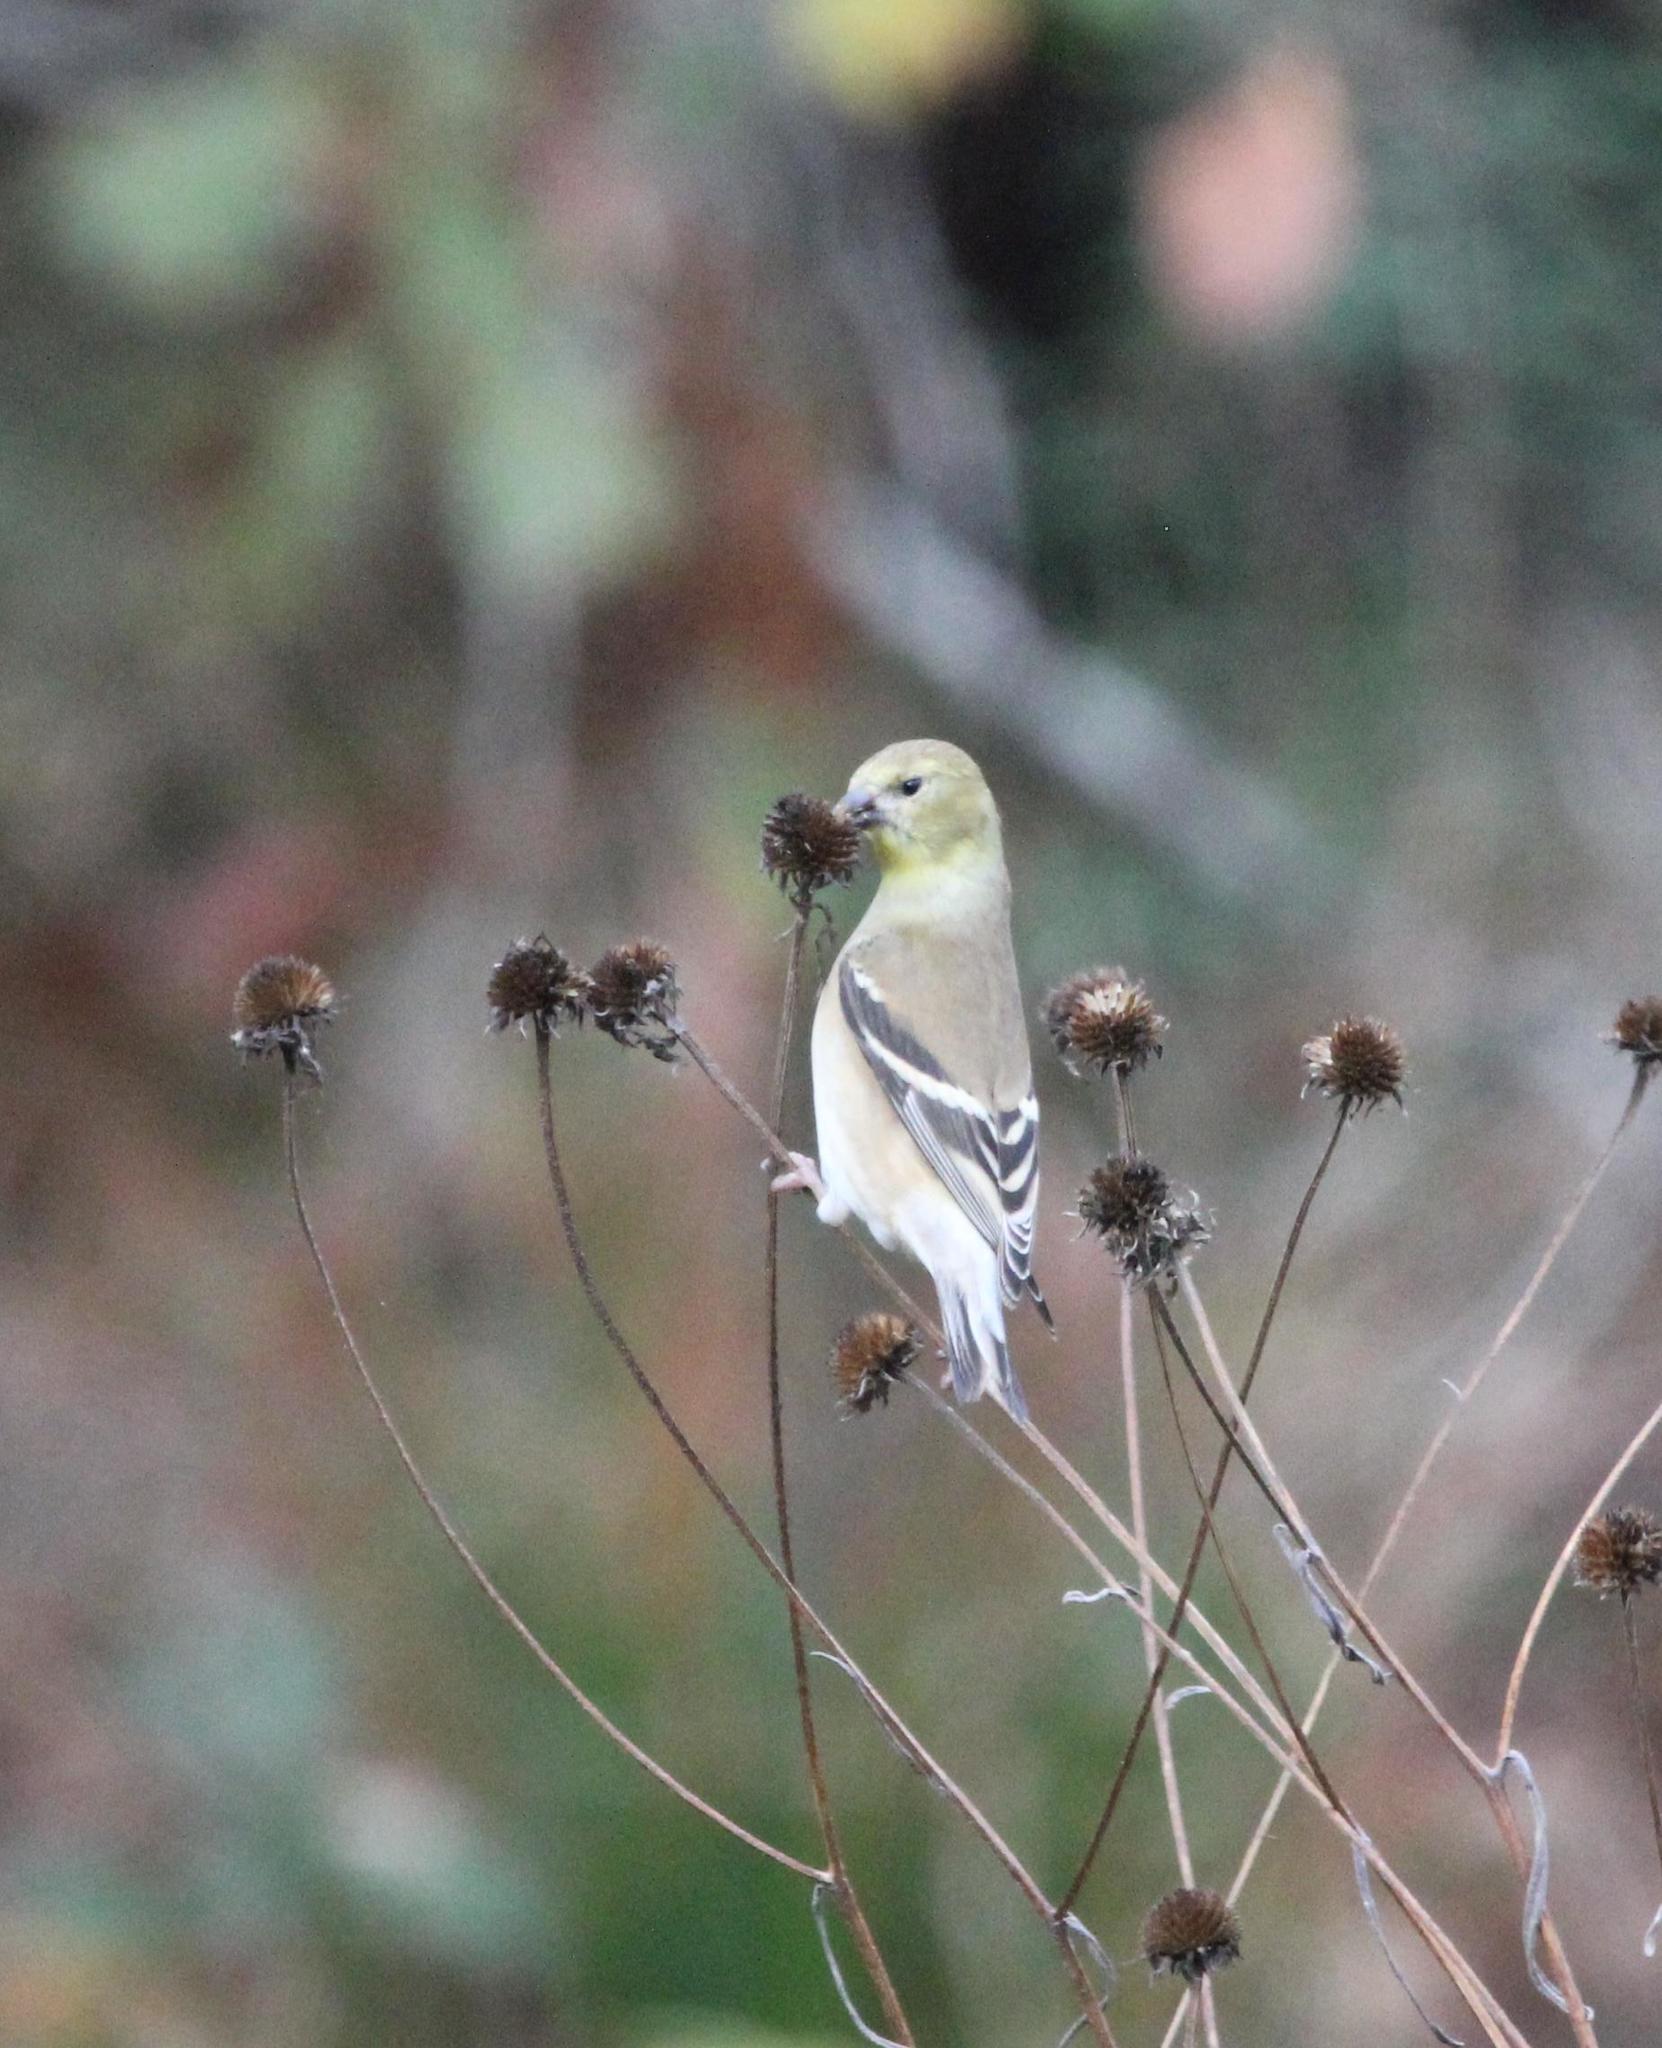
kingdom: Animalia
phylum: Chordata
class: Aves
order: Passeriformes
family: Fringillidae
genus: Spinus
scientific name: Spinus tristis
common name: American goldfinch
